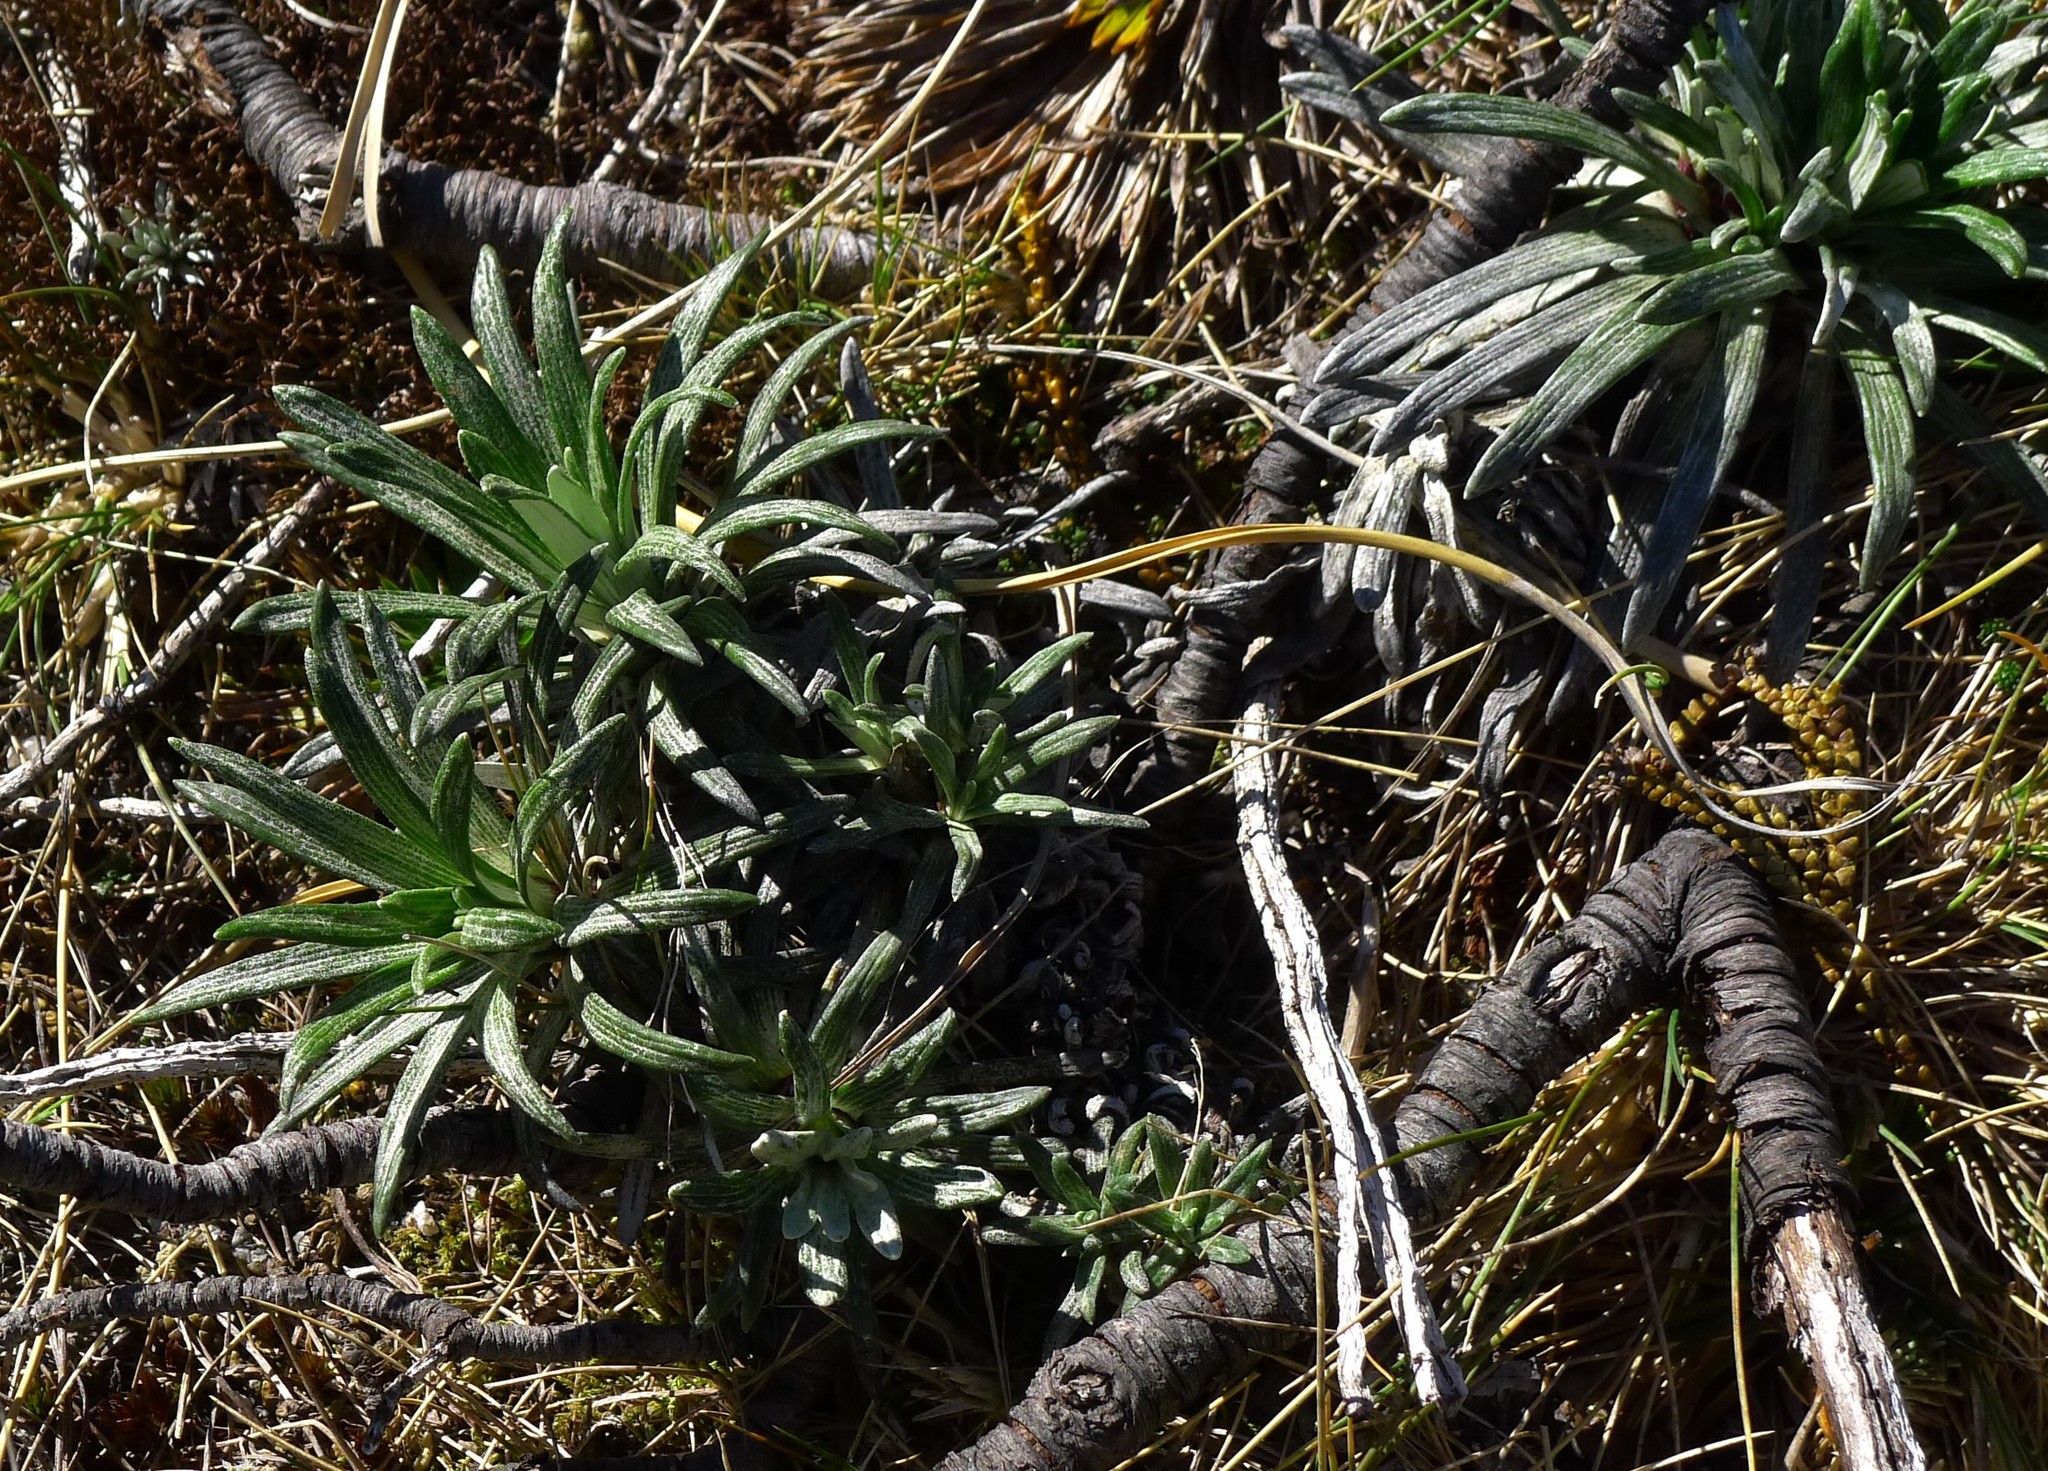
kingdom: Plantae
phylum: Tracheophyta
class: Magnoliopsida
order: Asterales
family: Asteraceae
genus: Celmisia
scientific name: Celmisia viscosa
